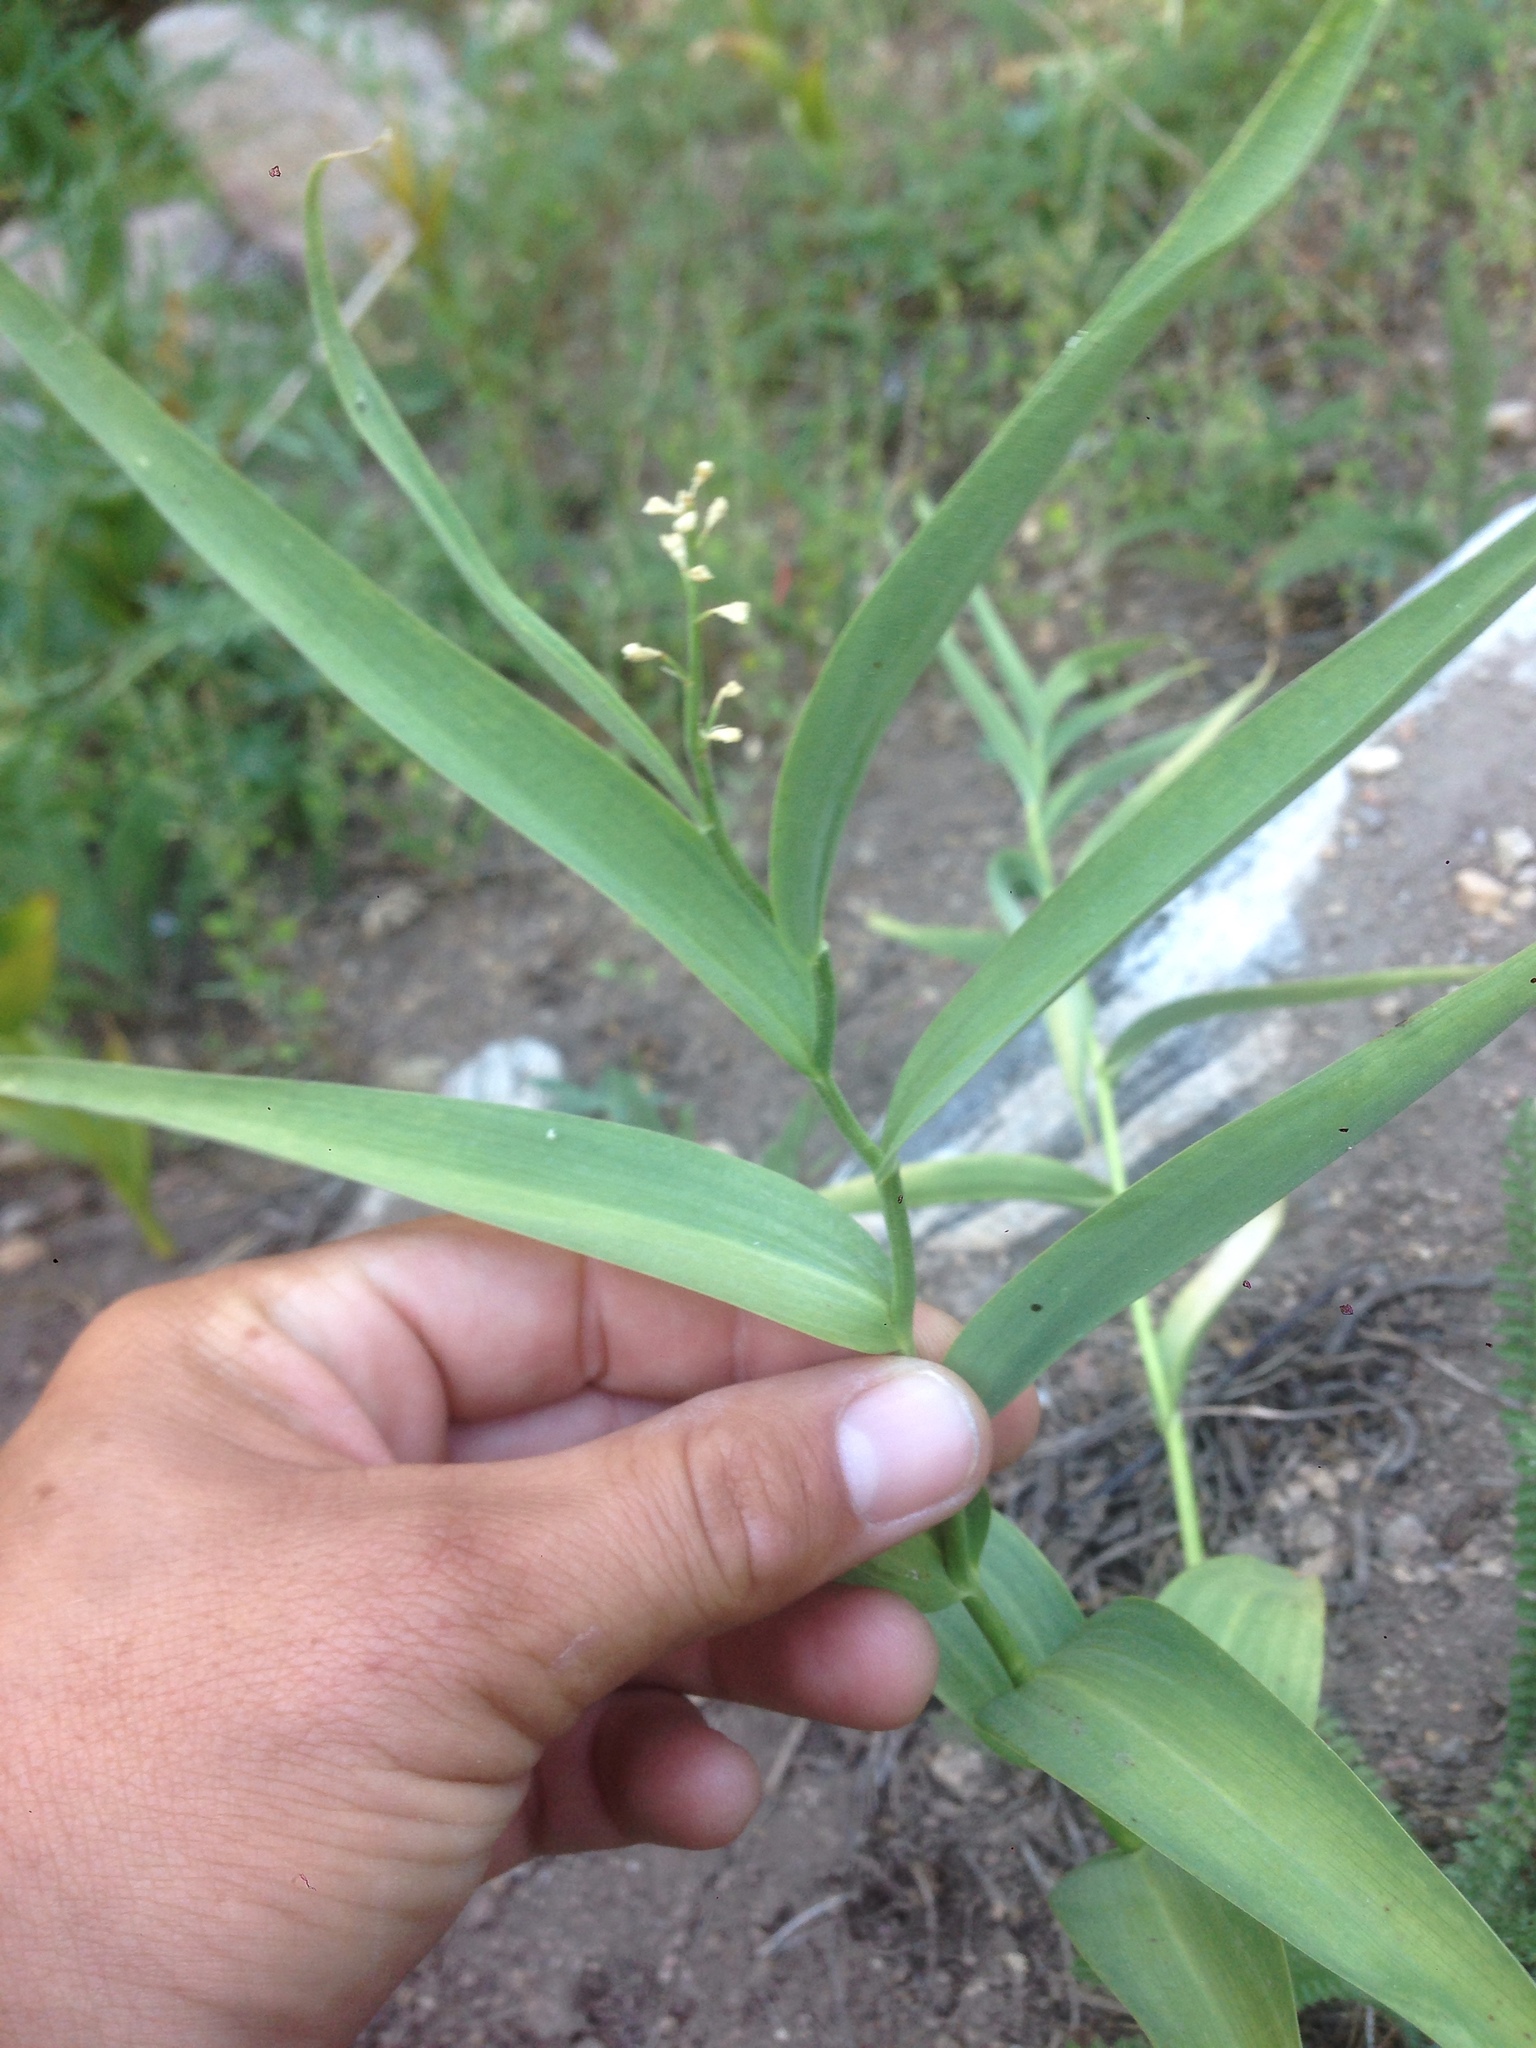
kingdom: Plantae
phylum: Tracheophyta
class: Liliopsida
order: Asparagales
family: Asparagaceae
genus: Maianthemum
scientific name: Maianthemum stellatum
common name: Little false solomon's seal
